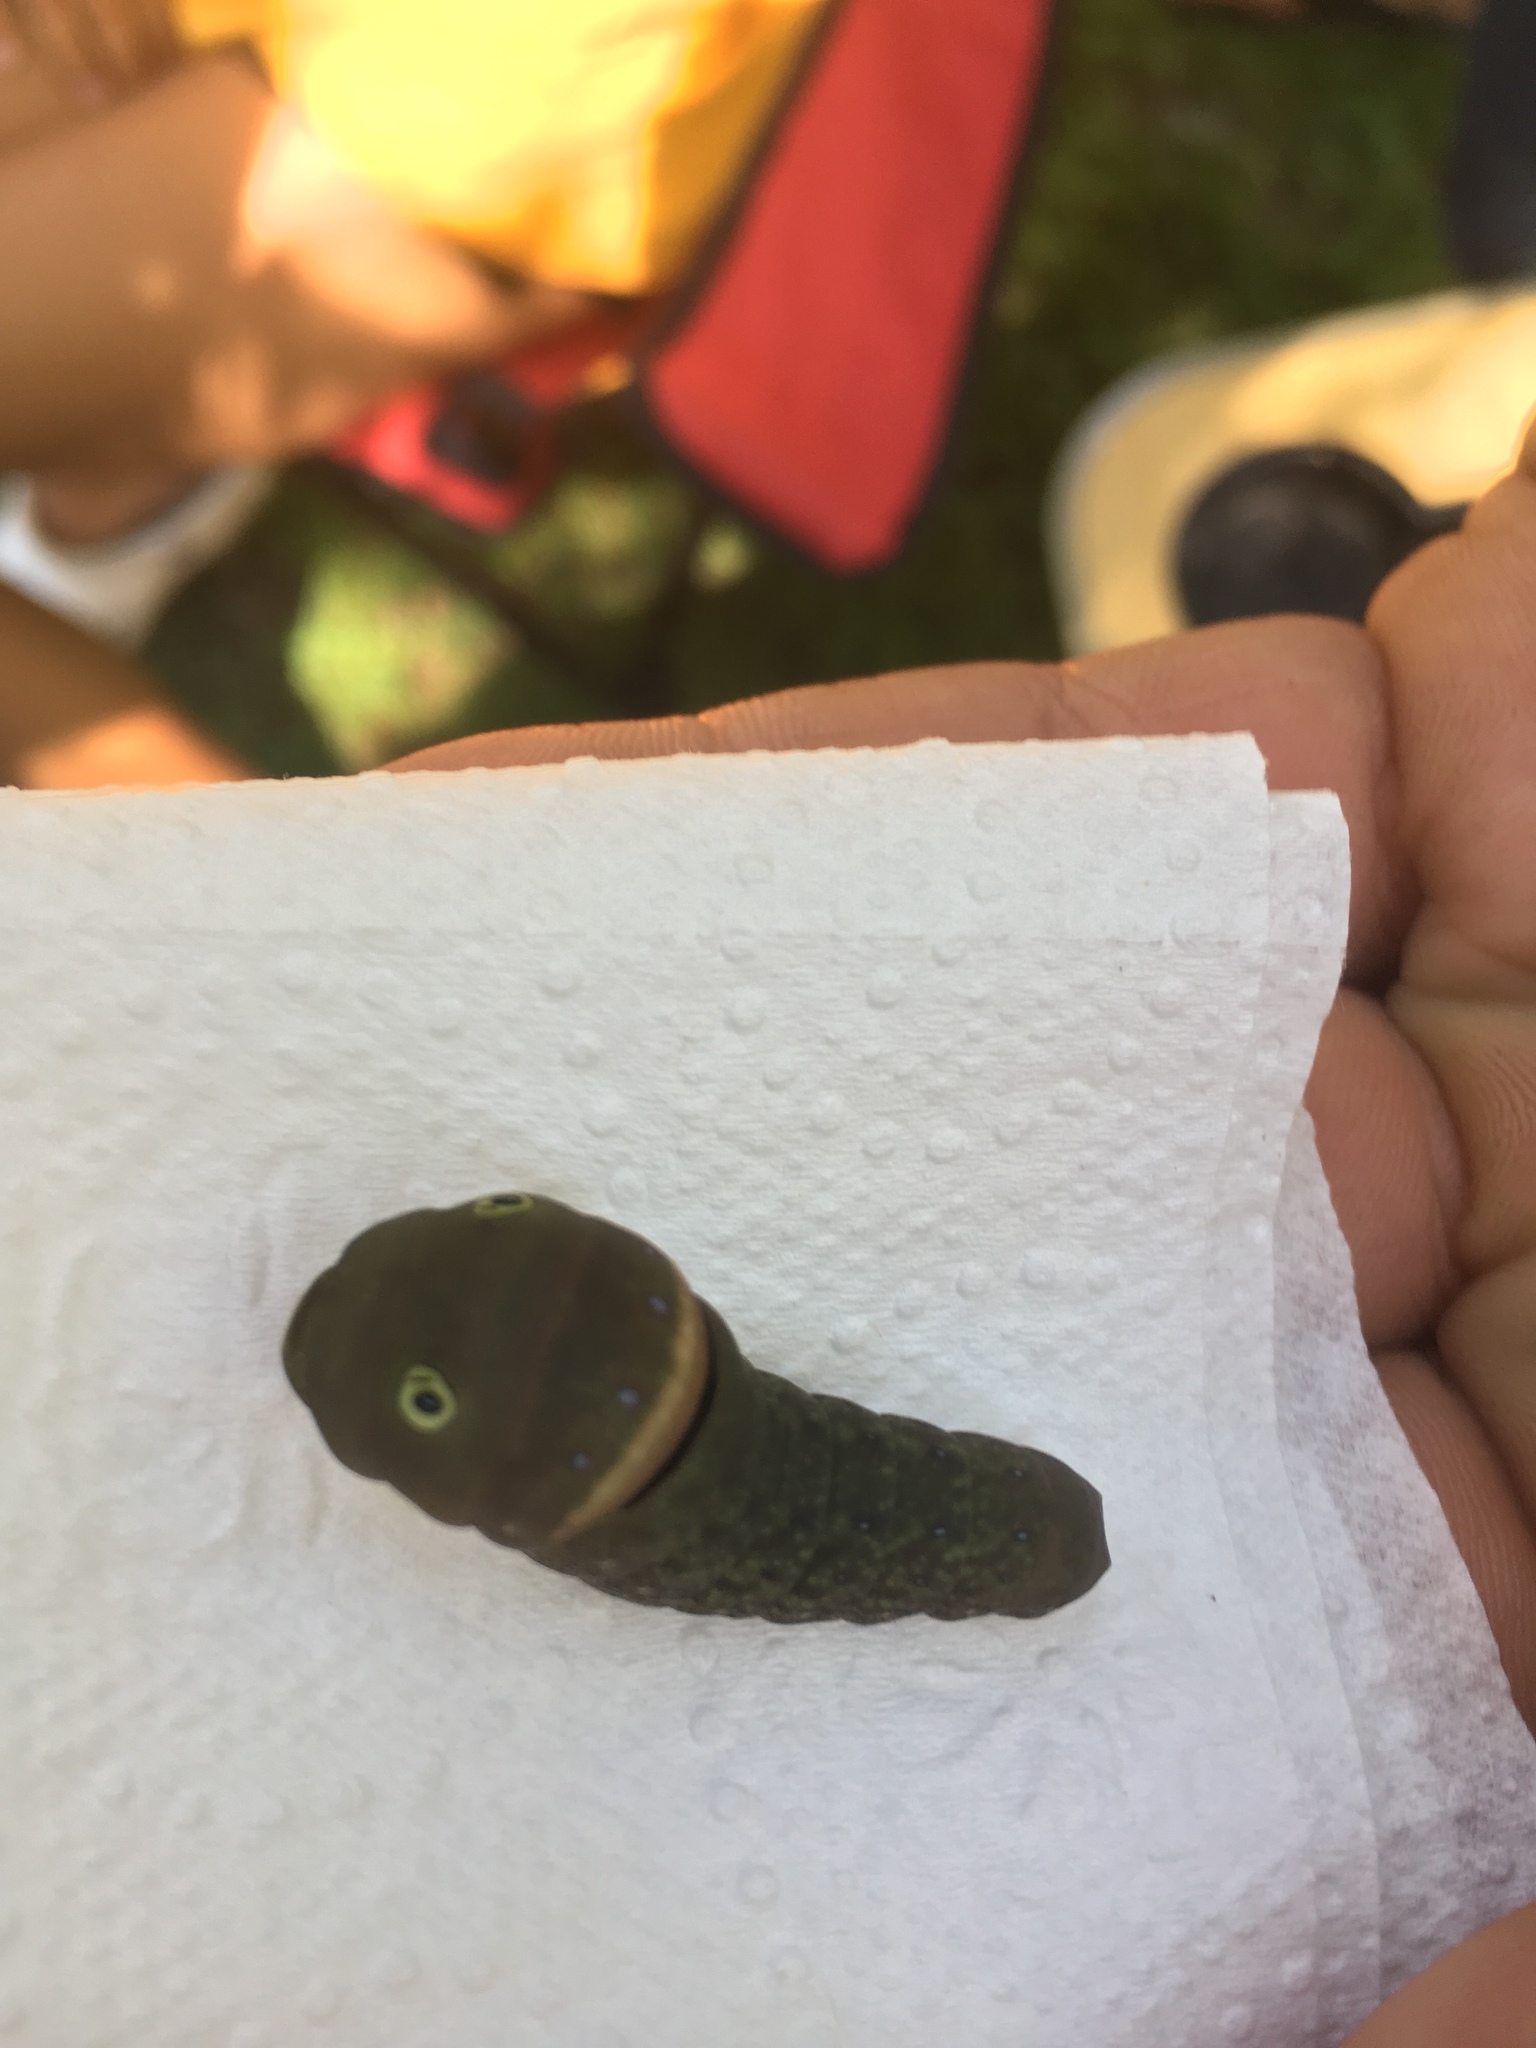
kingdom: Animalia
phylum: Arthropoda
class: Insecta
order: Lepidoptera
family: Papilionidae
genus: Papilio
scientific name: Papilio glaucus
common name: Tiger swallowtail
